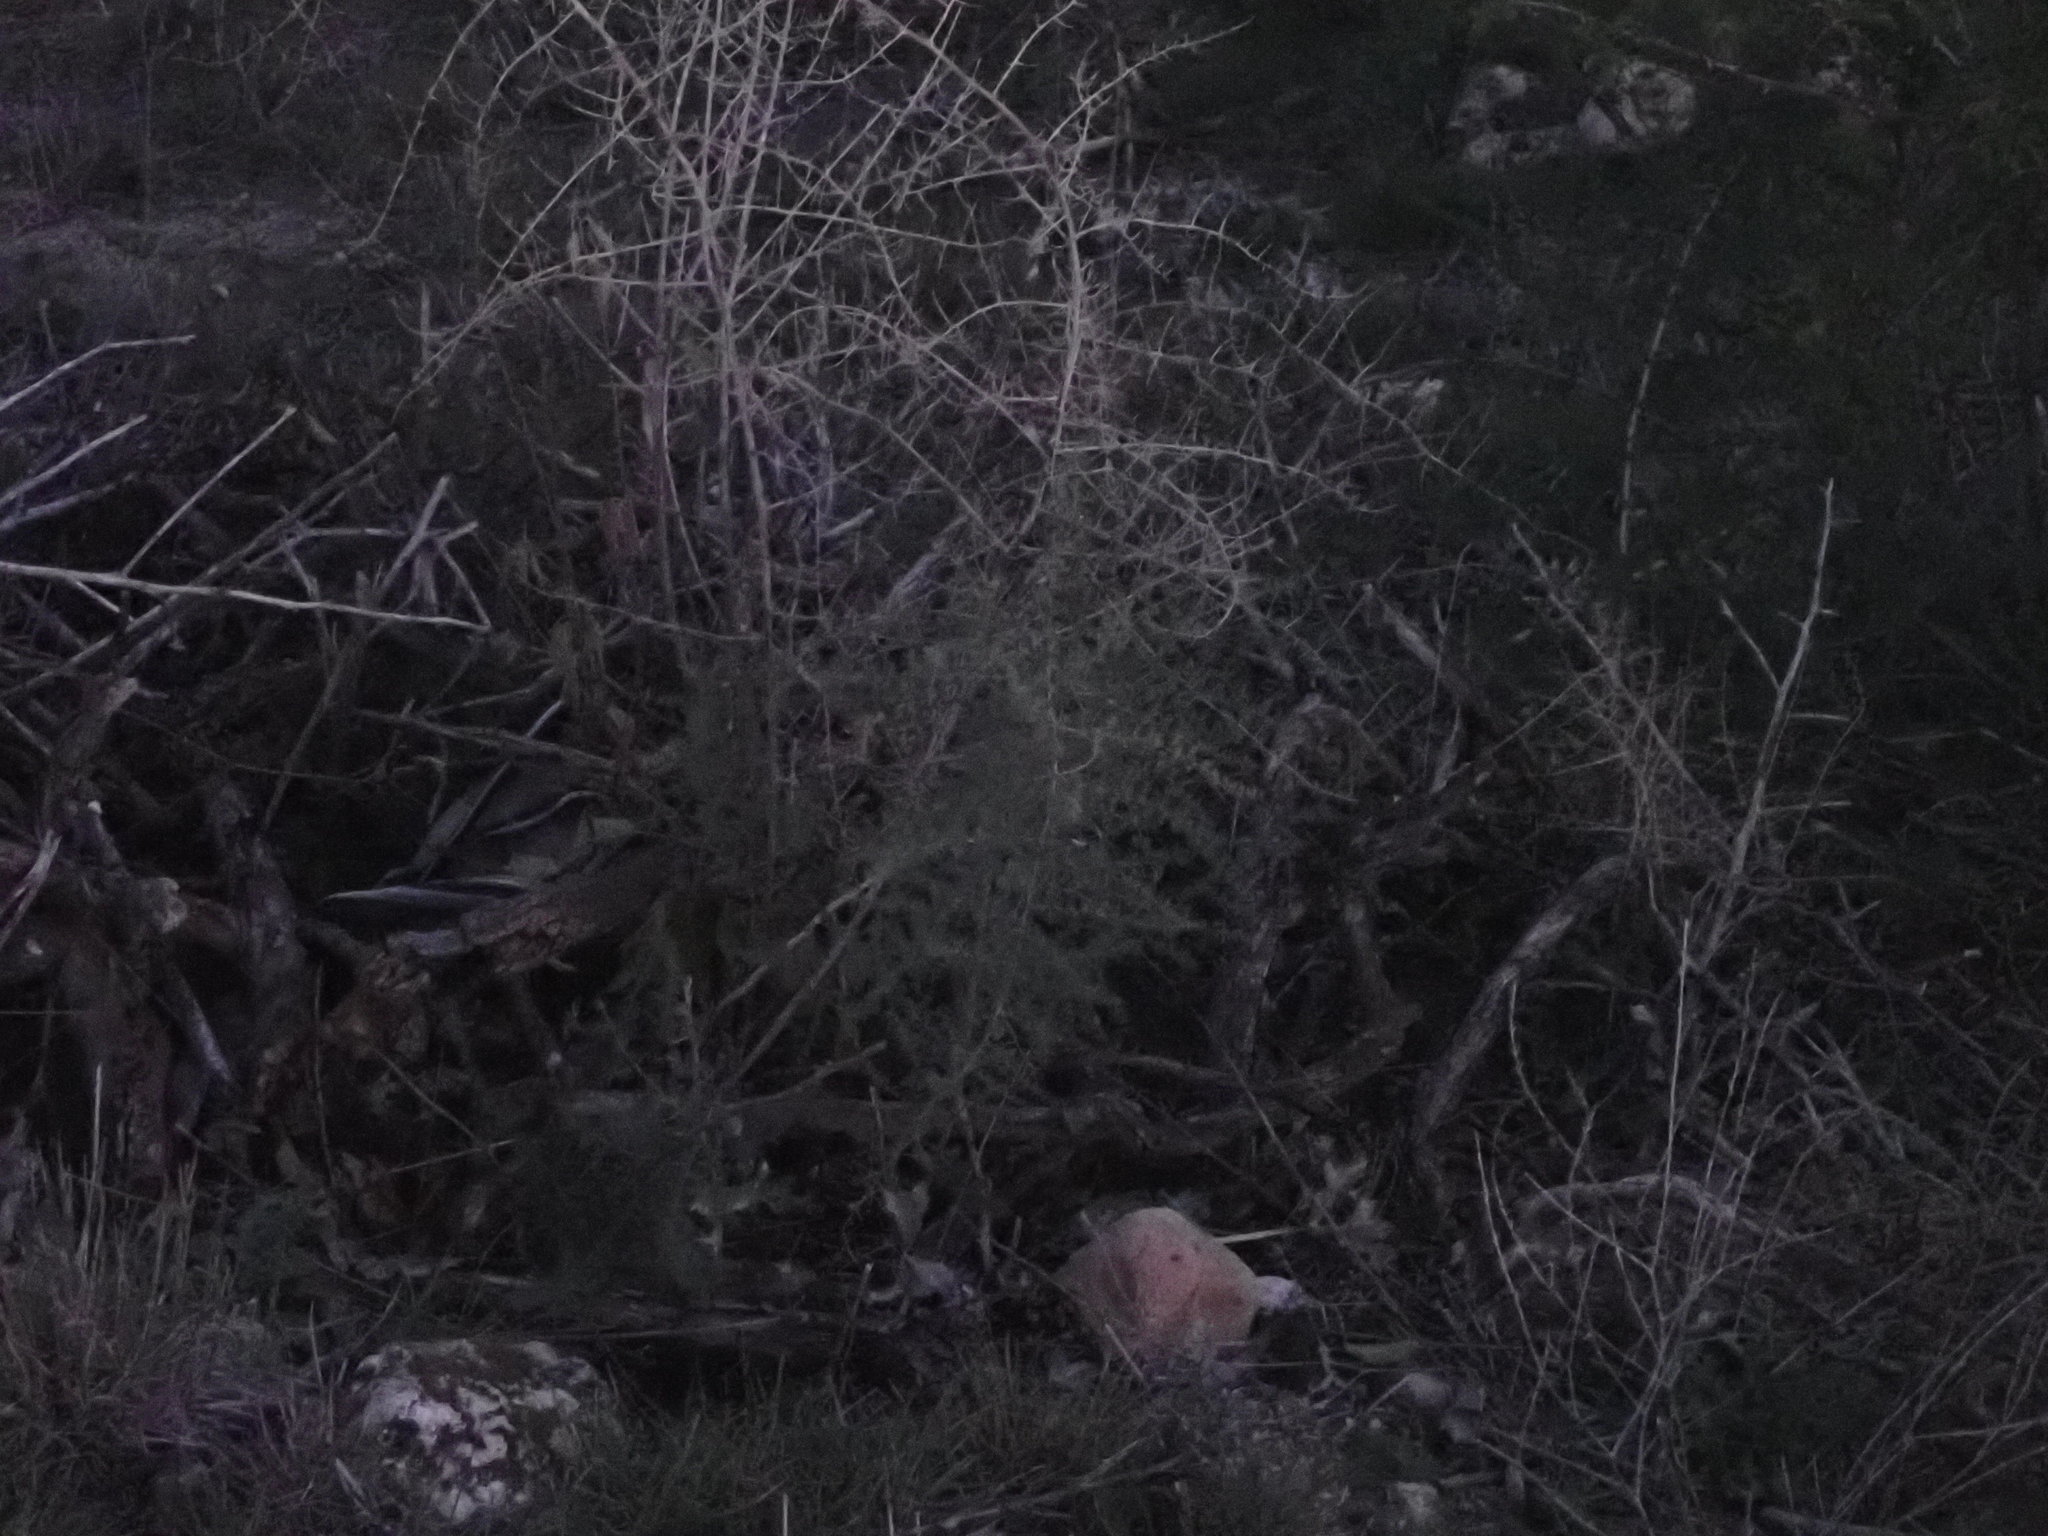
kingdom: Plantae
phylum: Tracheophyta
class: Liliopsida
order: Asparagales
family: Asparagaceae
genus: Asparagus
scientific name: Asparagus acutifolius
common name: Wild asparagus
